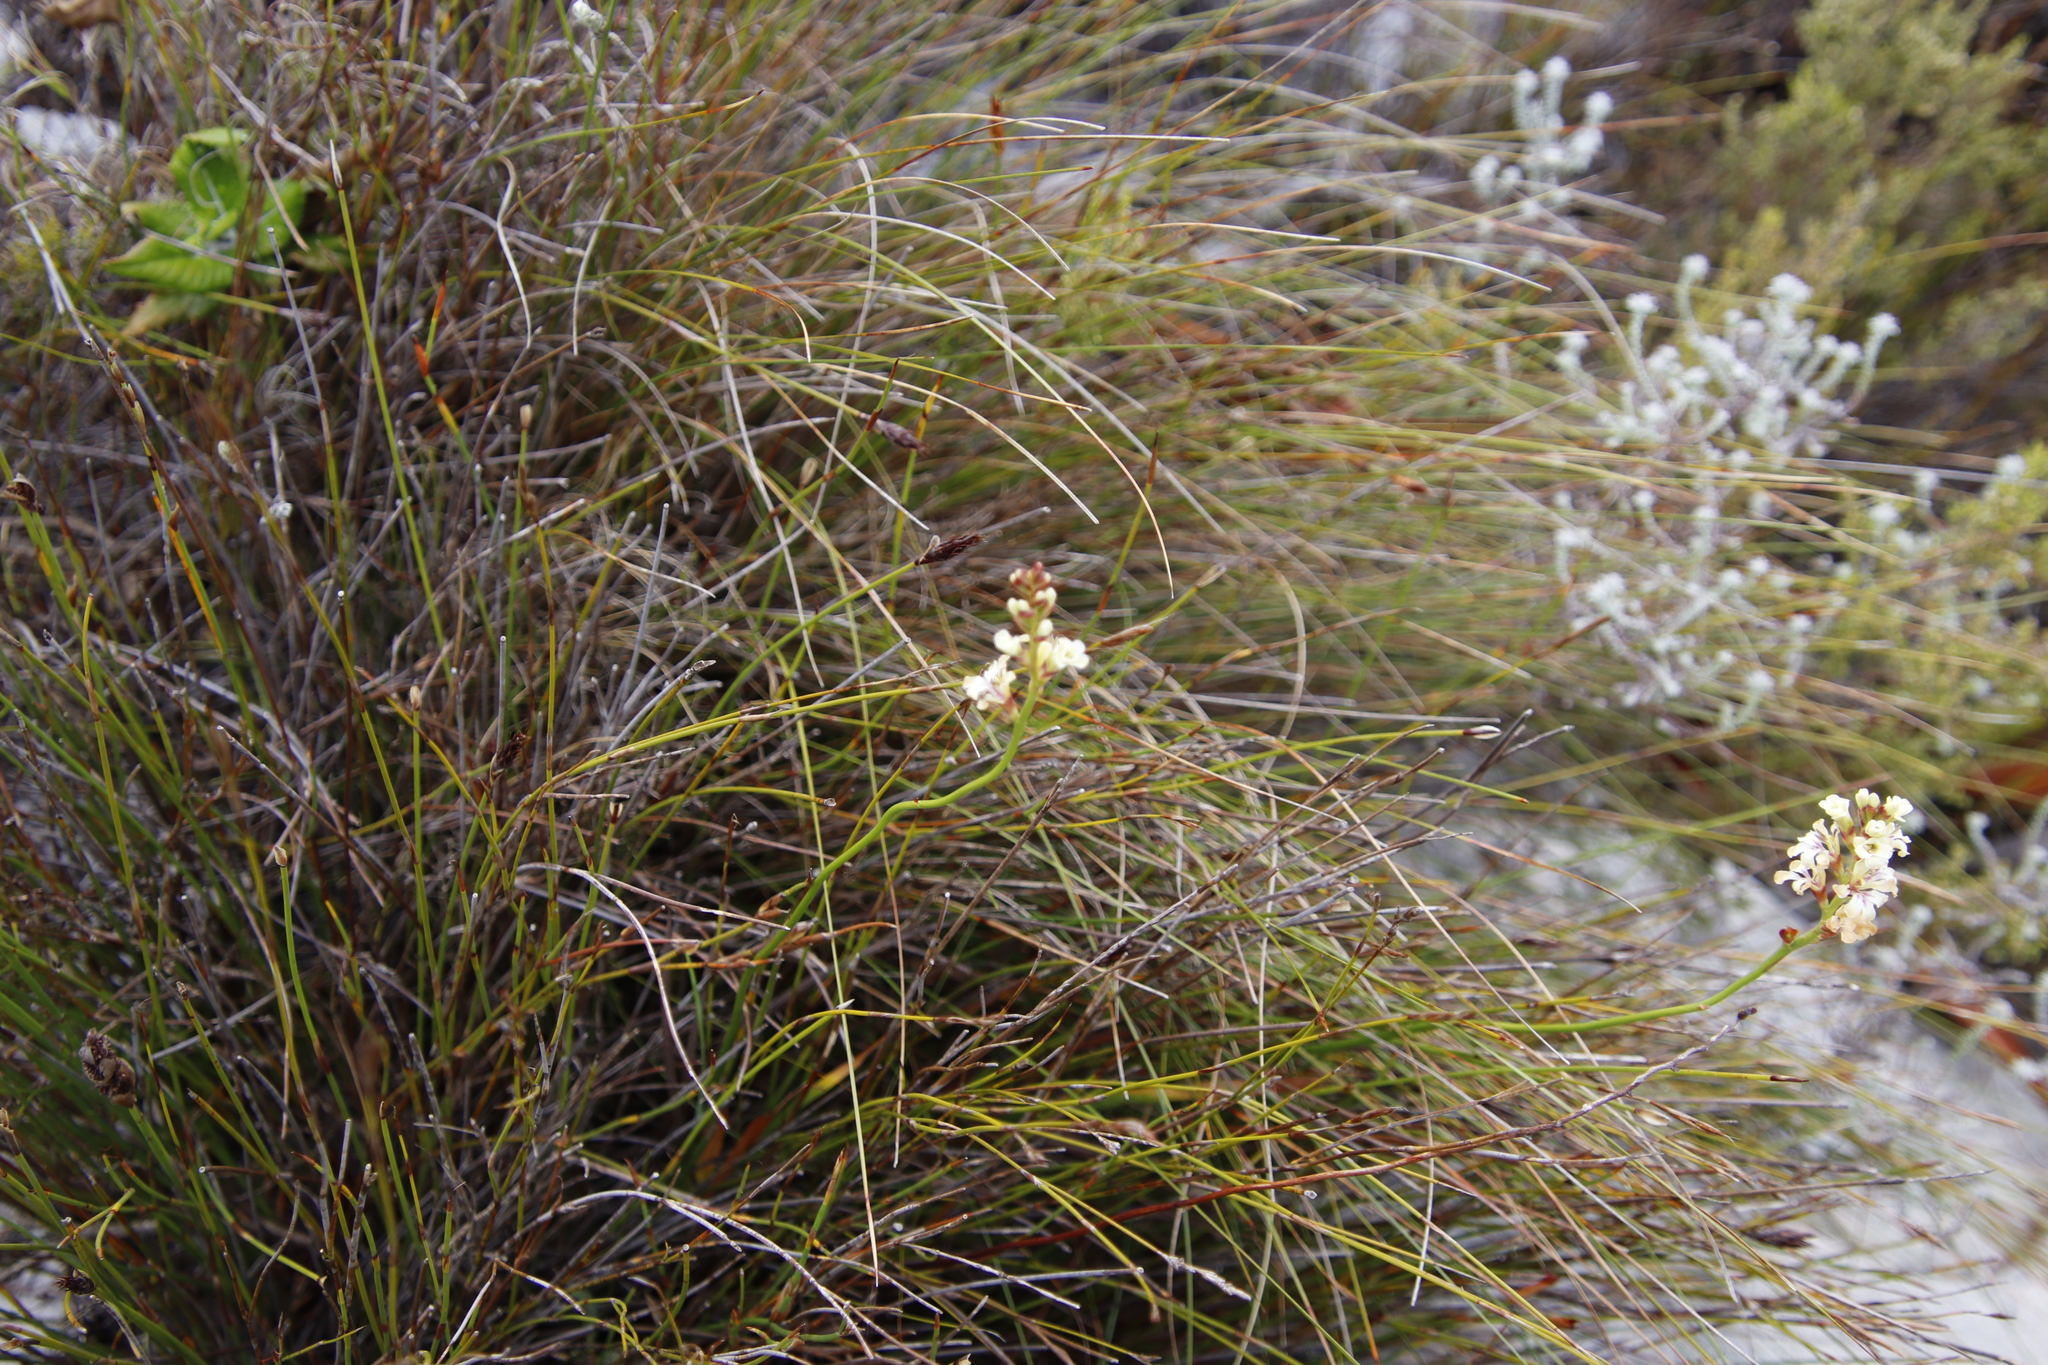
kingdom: Plantae
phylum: Tracheophyta
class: Liliopsida
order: Asparagales
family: Iridaceae
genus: Tritoniopsis
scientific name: Tritoniopsis unguicularis
